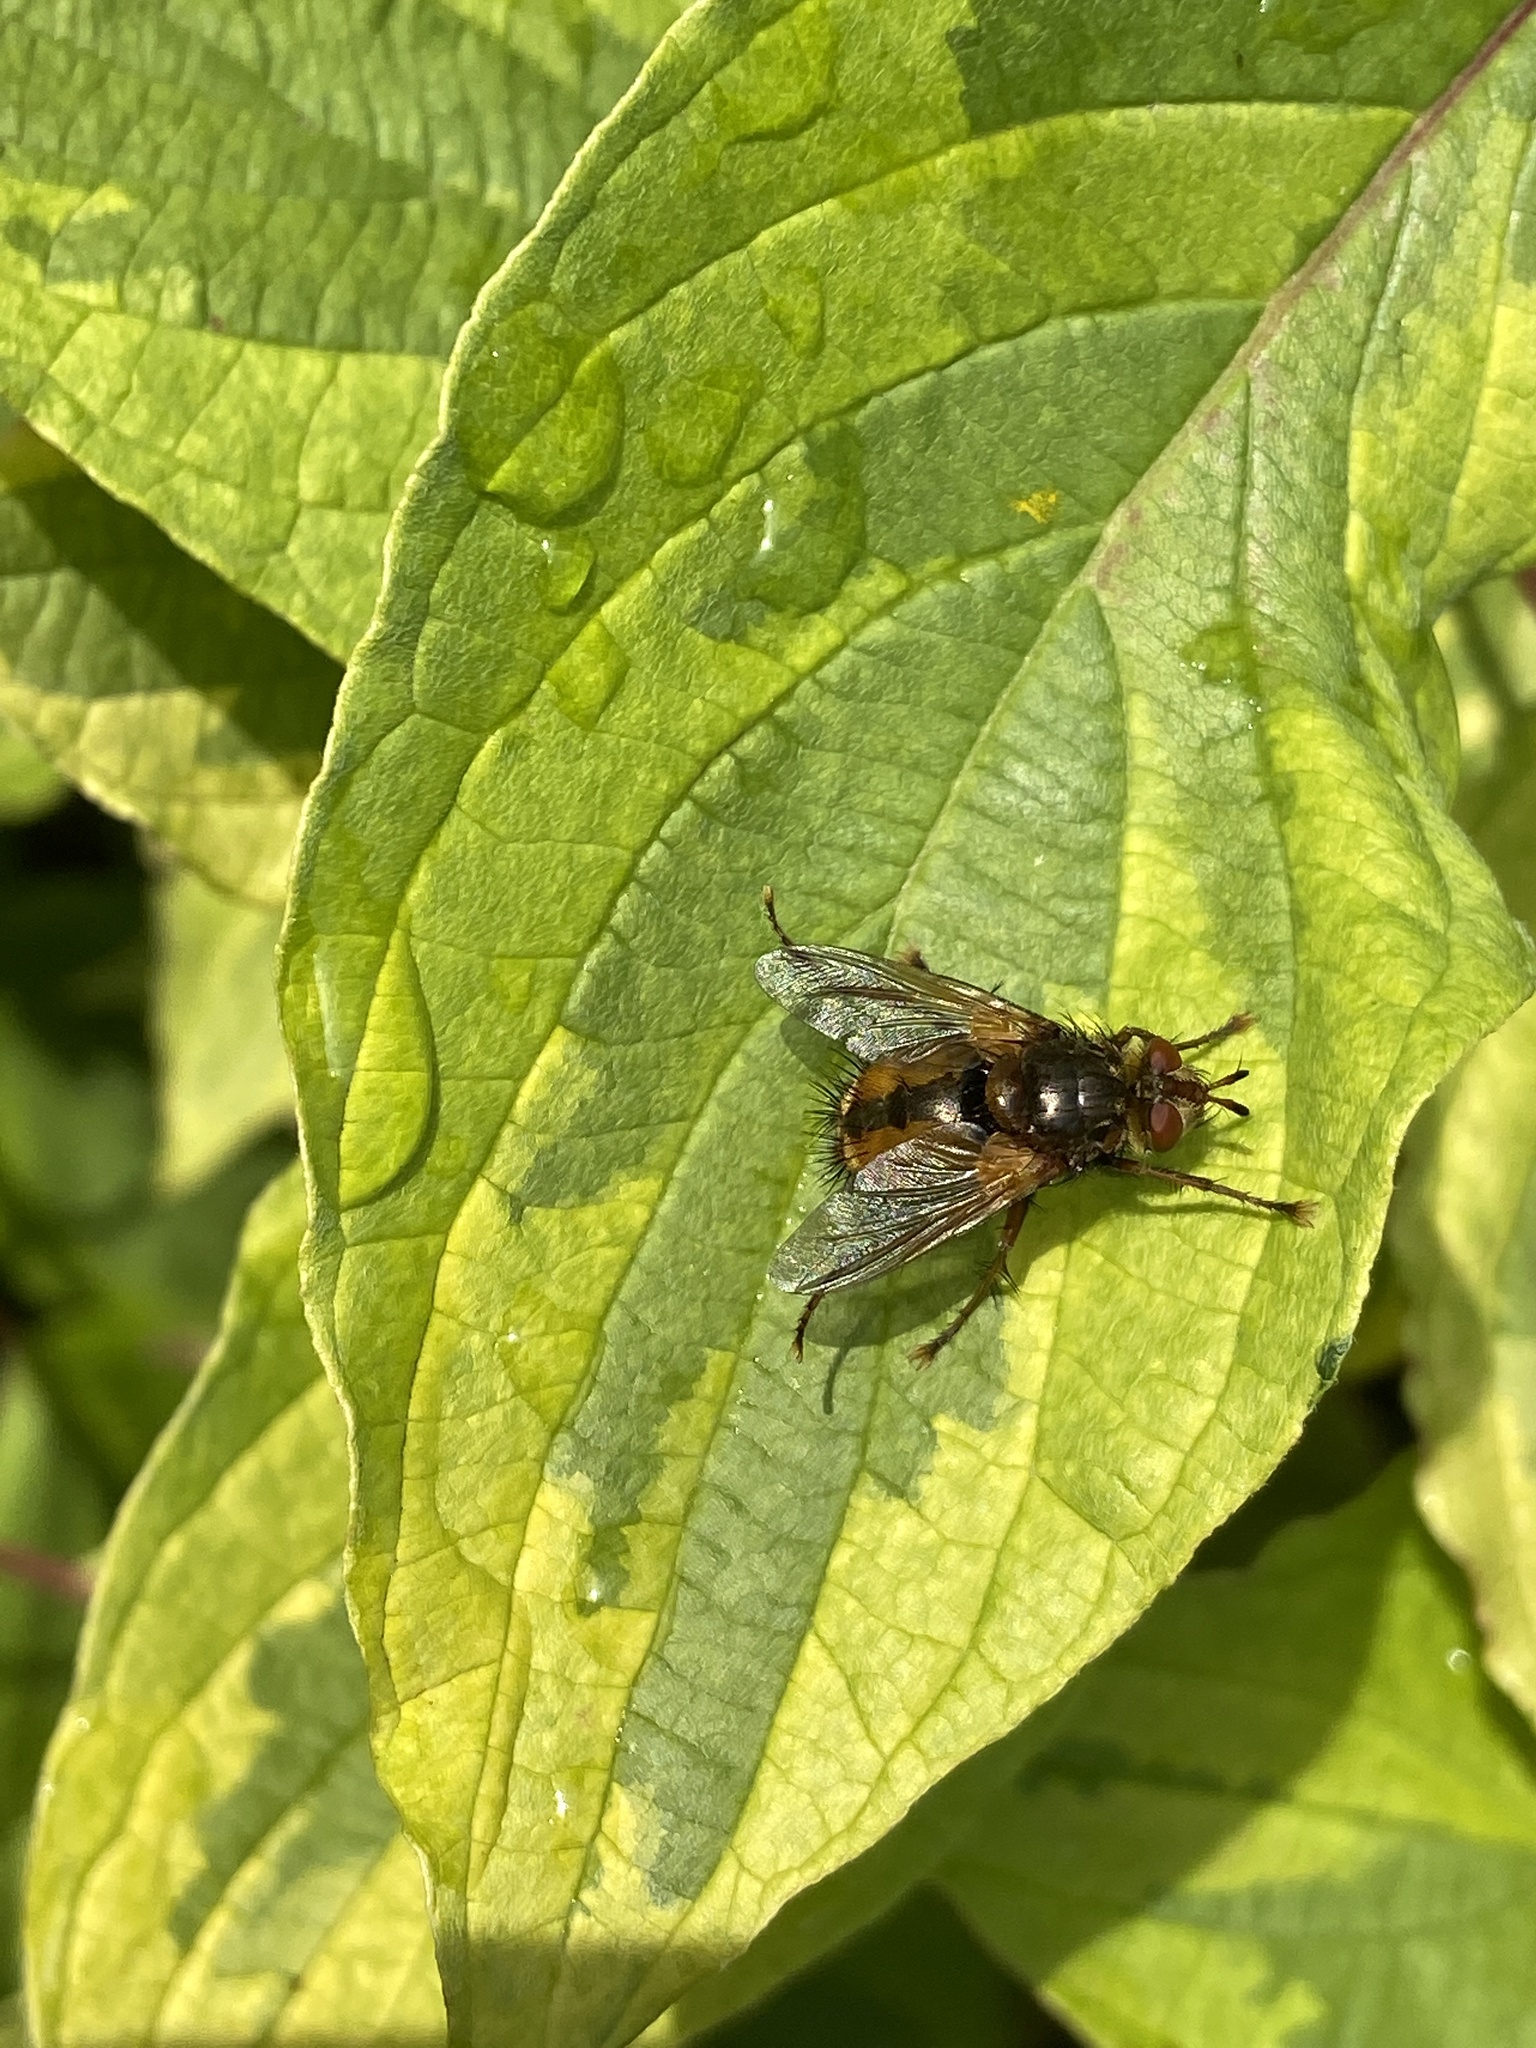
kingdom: Animalia
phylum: Arthropoda
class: Insecta
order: Diptera
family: Tachinidae
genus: Tachina
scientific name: Tachina fera
